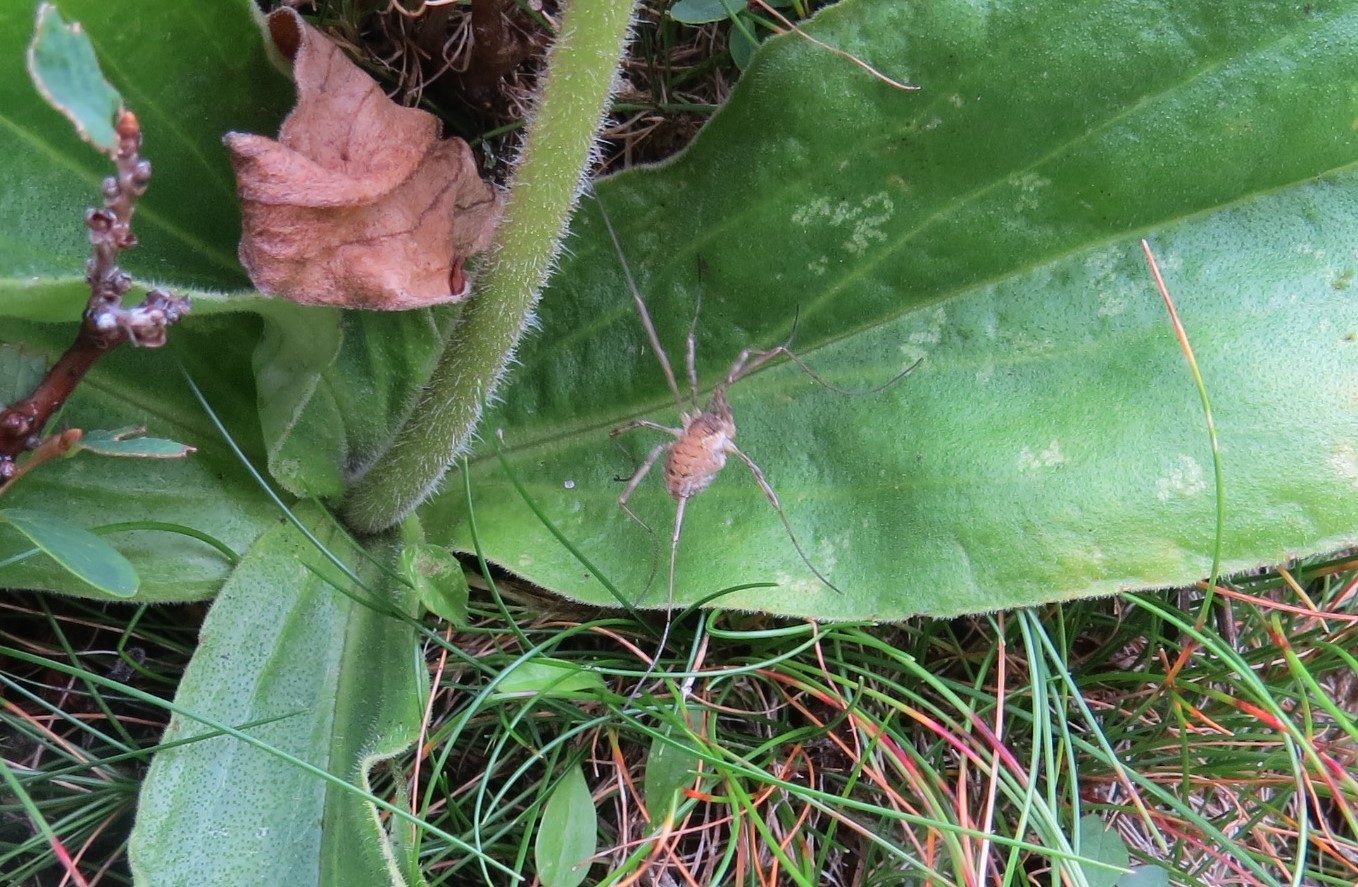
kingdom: Animalia
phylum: Arthropoda
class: Arachnida
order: Opiliones
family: Phalangiidae
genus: Mitopus
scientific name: Mitopus morio
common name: Saddleback harvestman
